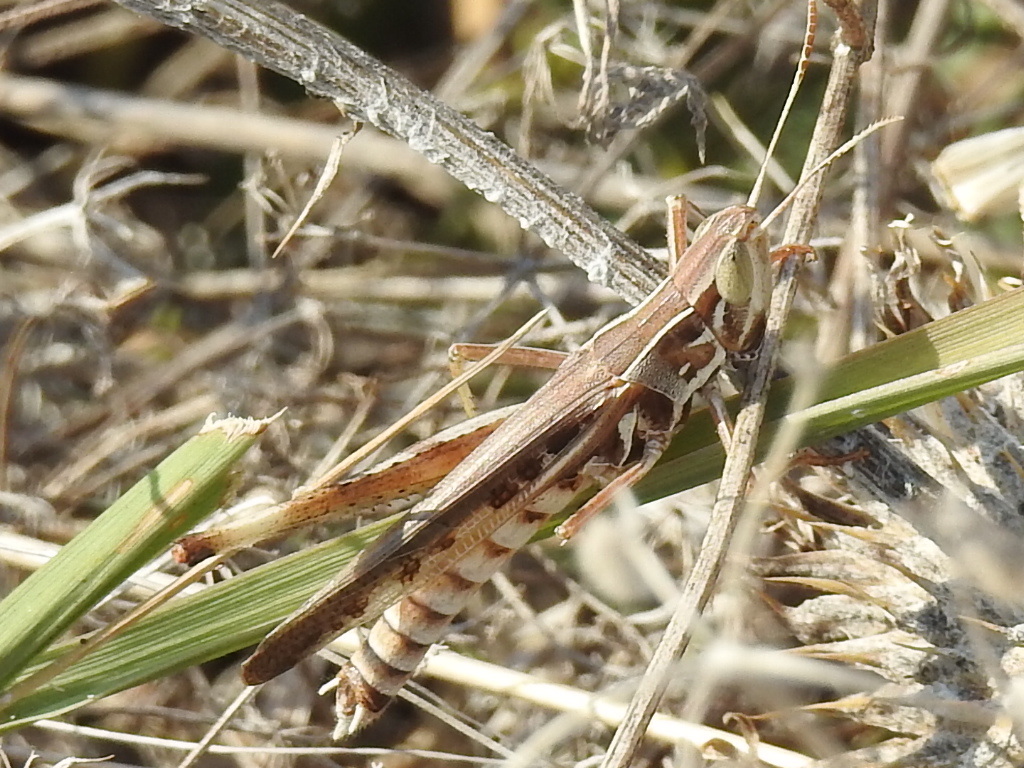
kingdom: Animalia
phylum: Arthropoda
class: Insecta
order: Orthoptera
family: Acrididae
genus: Syrbula
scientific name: Syrbula admirabilis
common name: Handsome grasshopper
